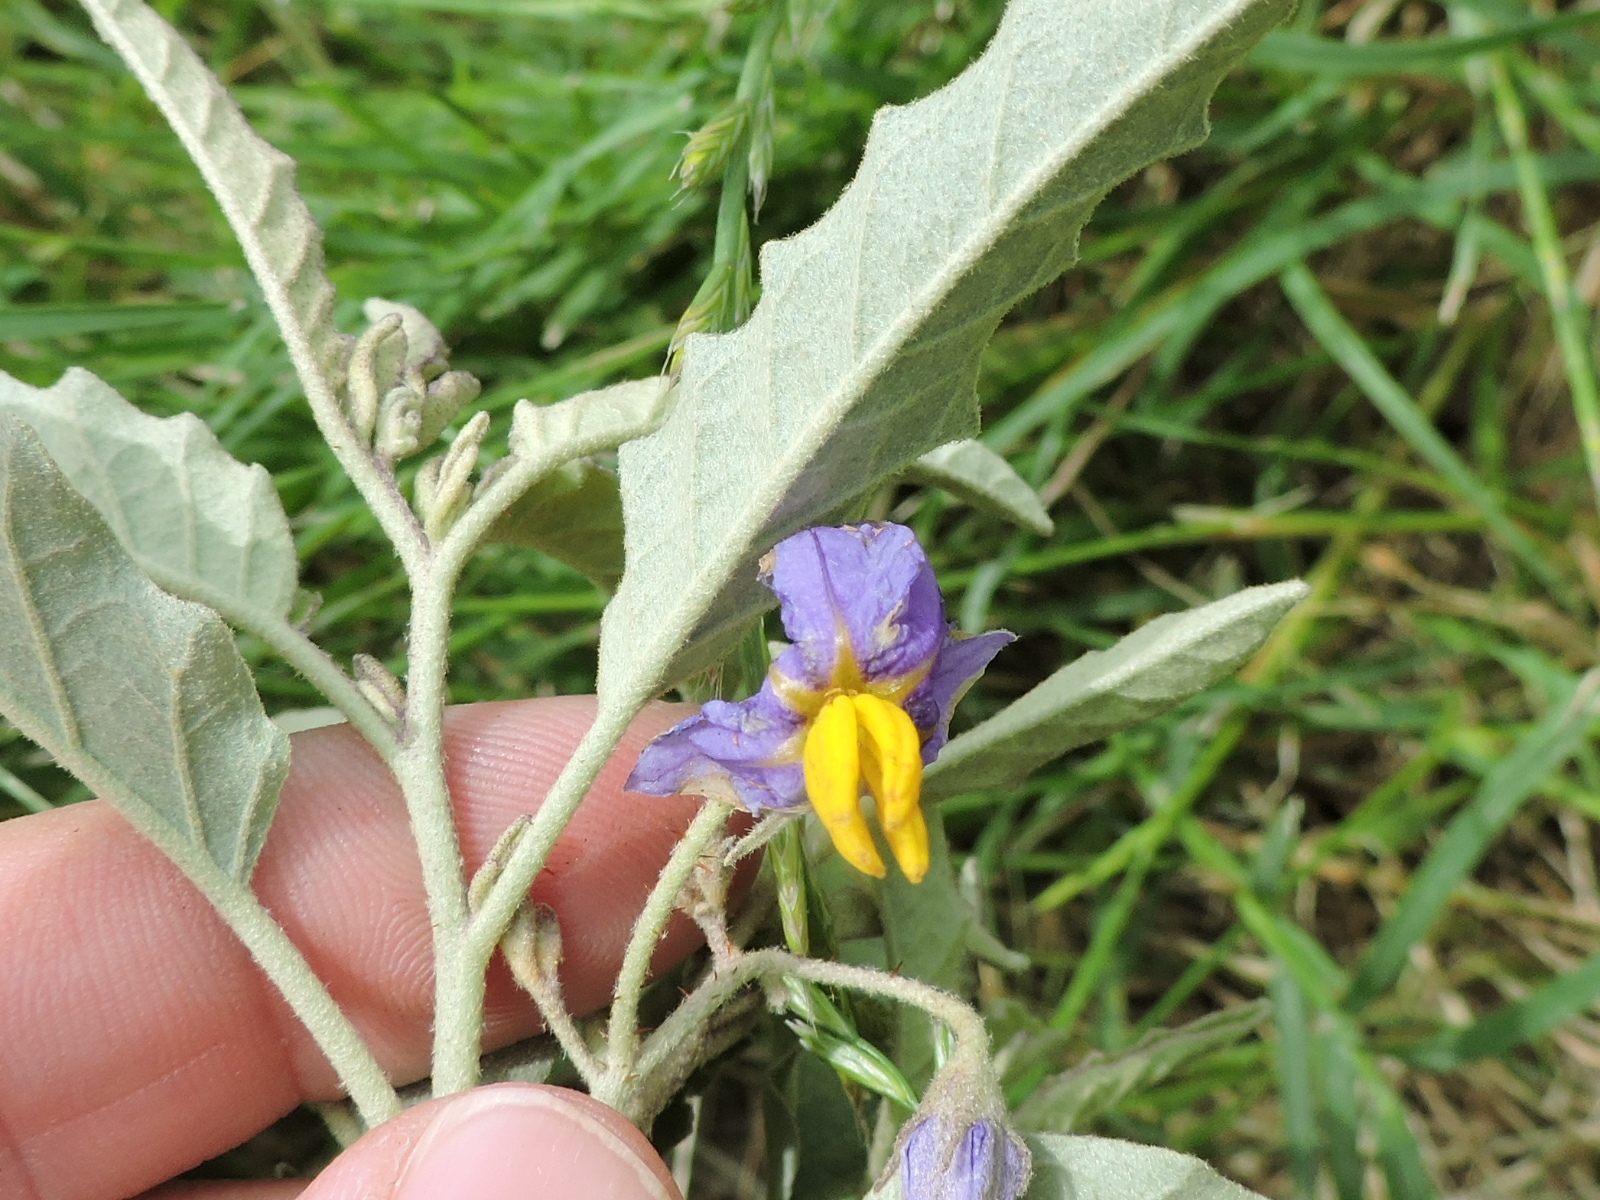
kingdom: Plantae
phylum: Tracheophyta
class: Magnoliopsida
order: Solanales
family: Solanaceae
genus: Solanum
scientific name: Solanum elaeagnifolium
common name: Silverleaf nightshade
